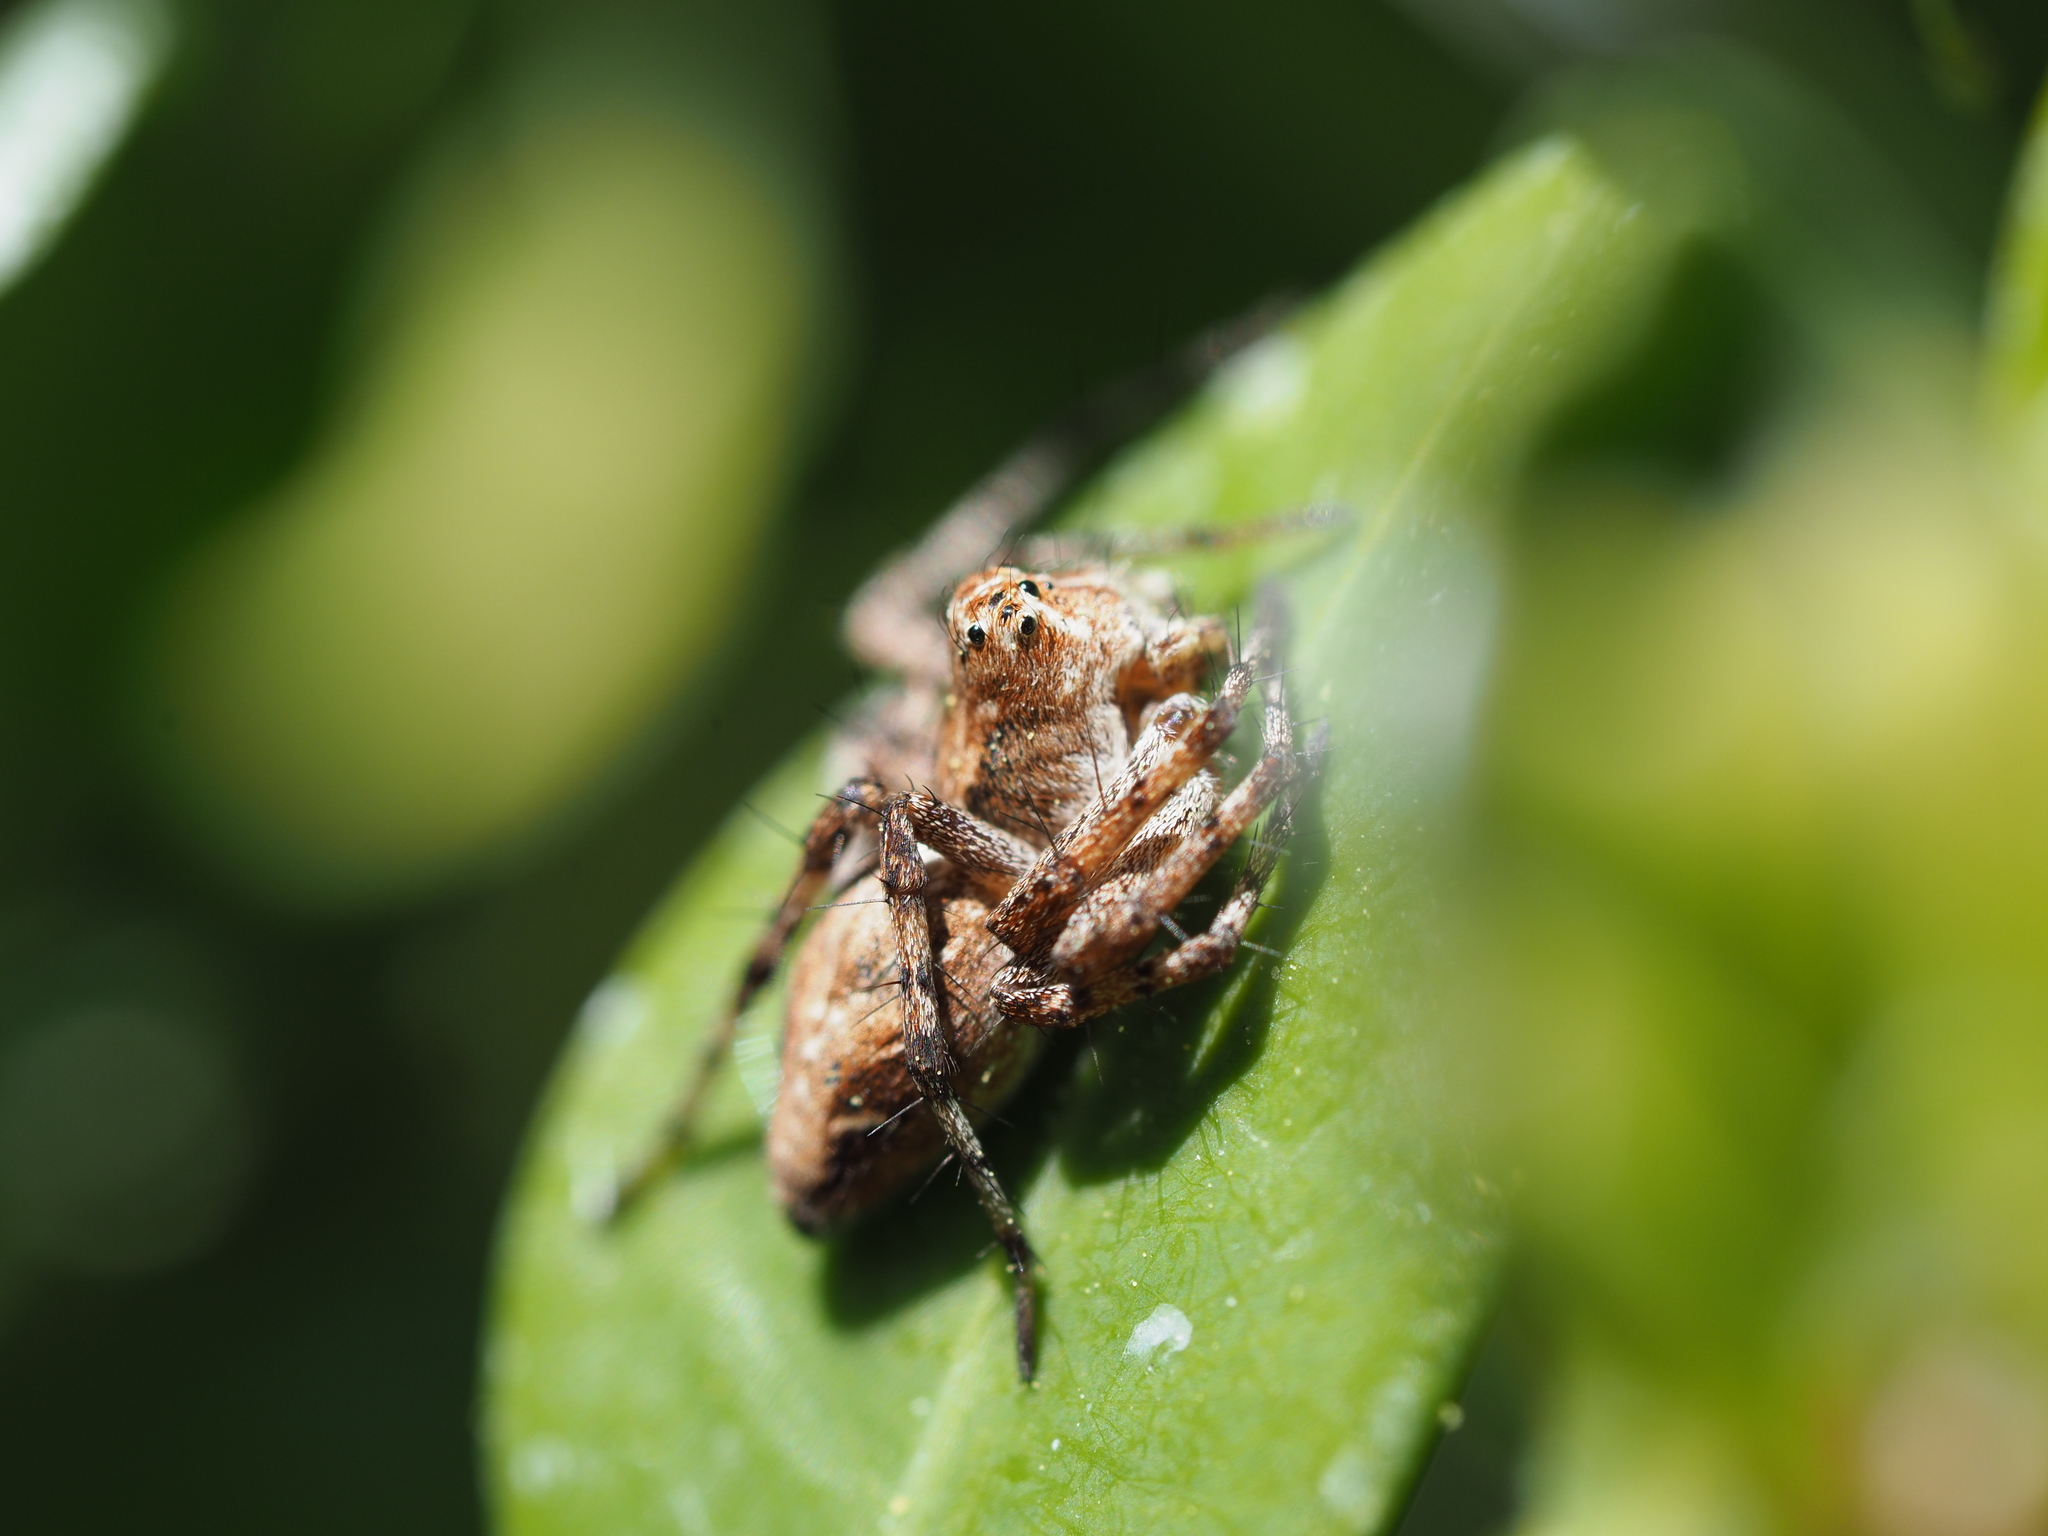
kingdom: Animalia
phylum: Arthropoda
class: Arachnida
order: Araneae
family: Oxyopidae
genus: Oxyopes
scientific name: Oxyopes scalaris
